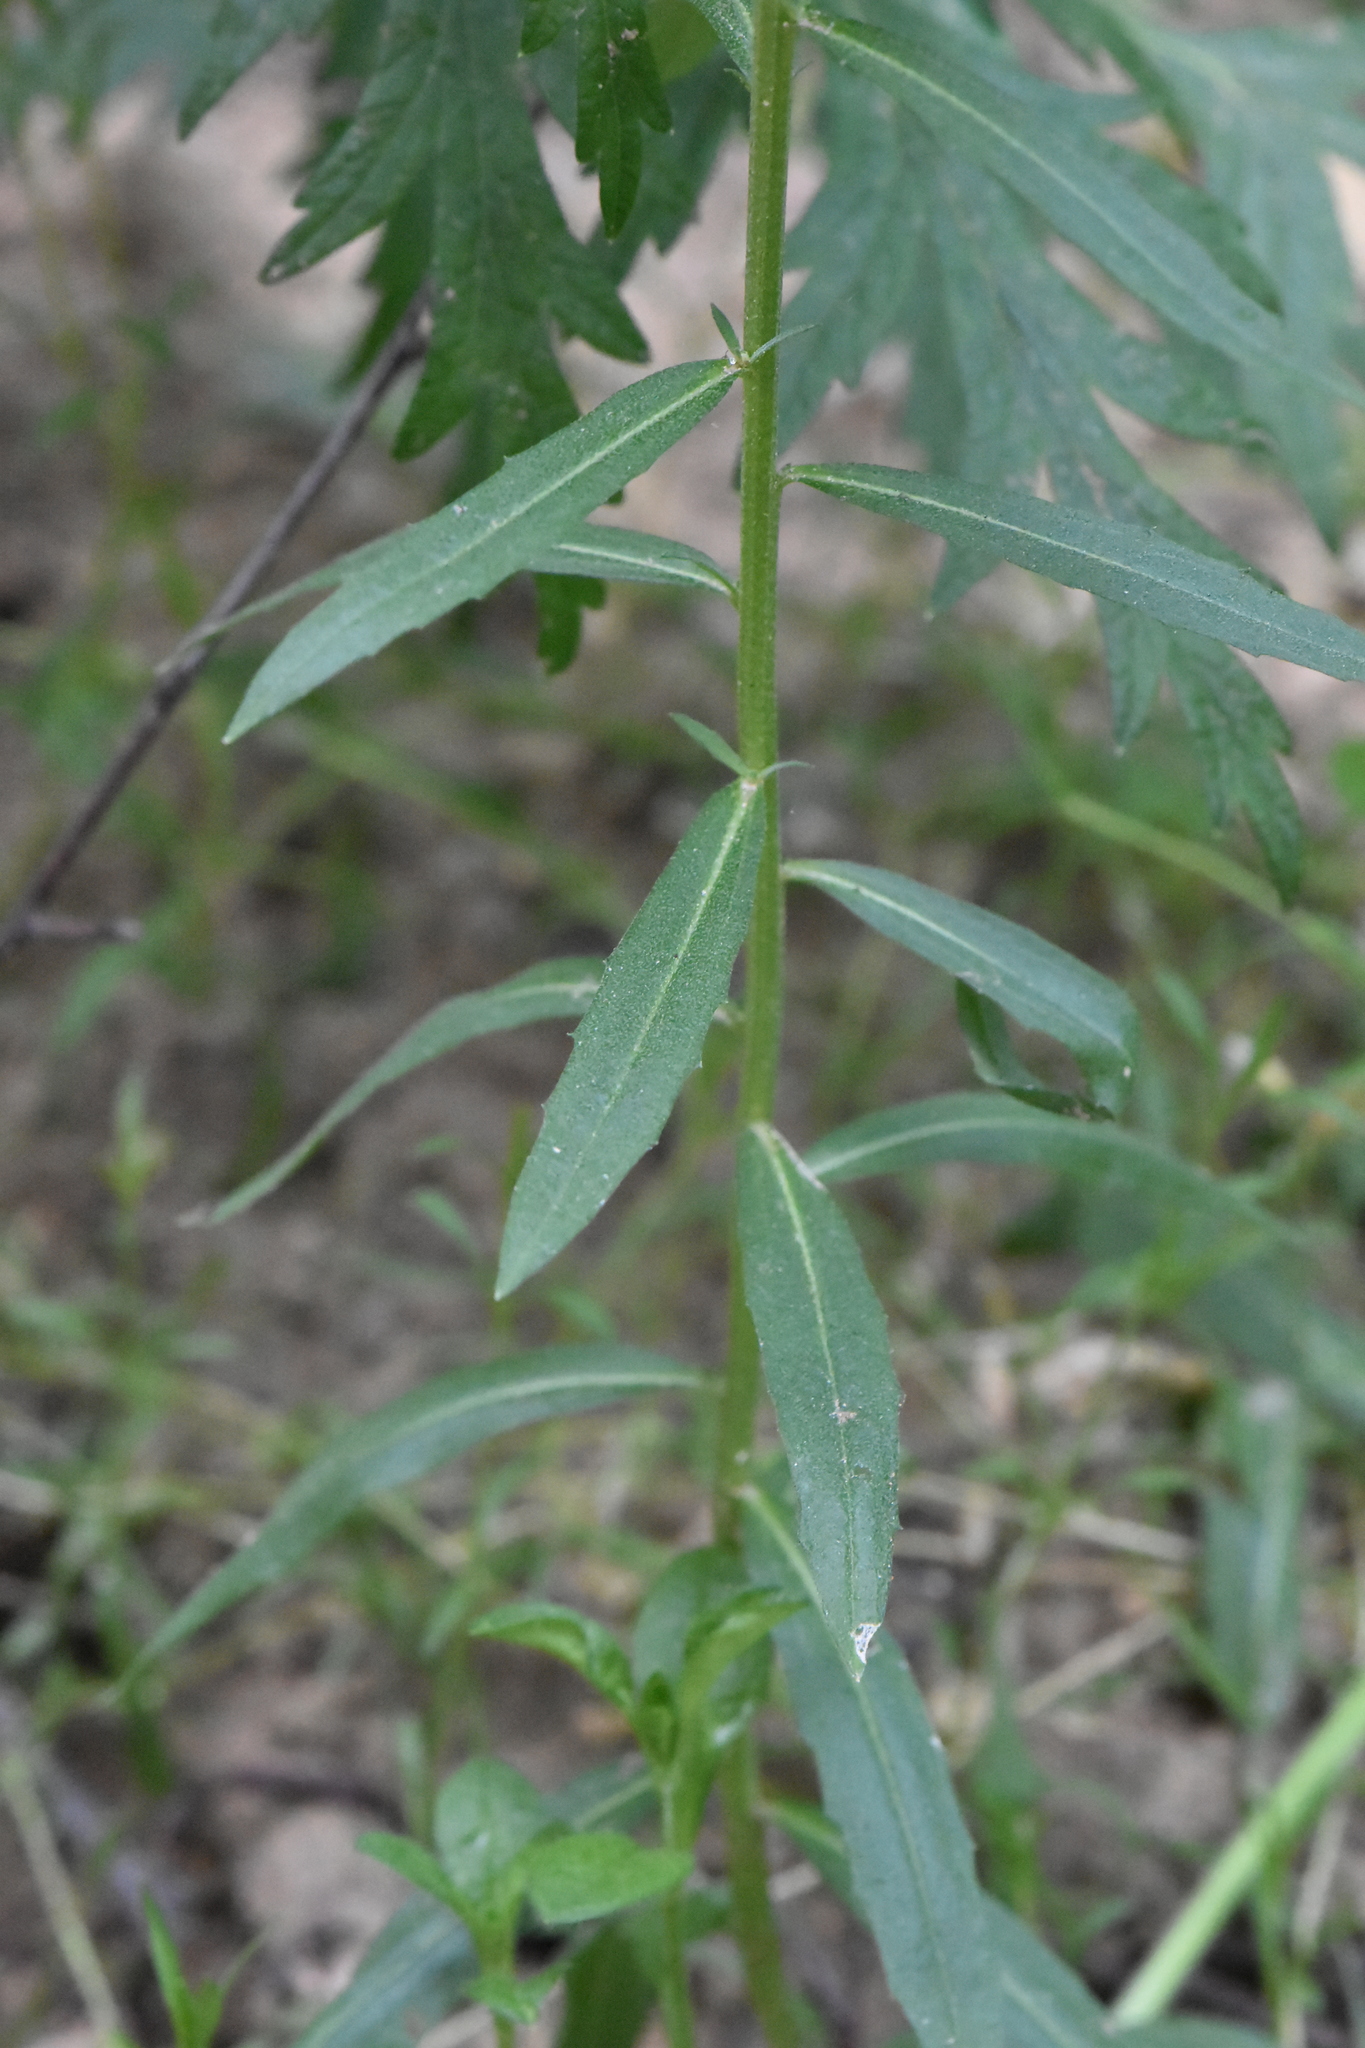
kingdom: Plantae
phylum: Tracheophyta
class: Magnoliopsida
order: Brassicales
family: Brassicaceae
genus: Erysimum
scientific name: Erysimum hieraciifolium
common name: European wallflower
